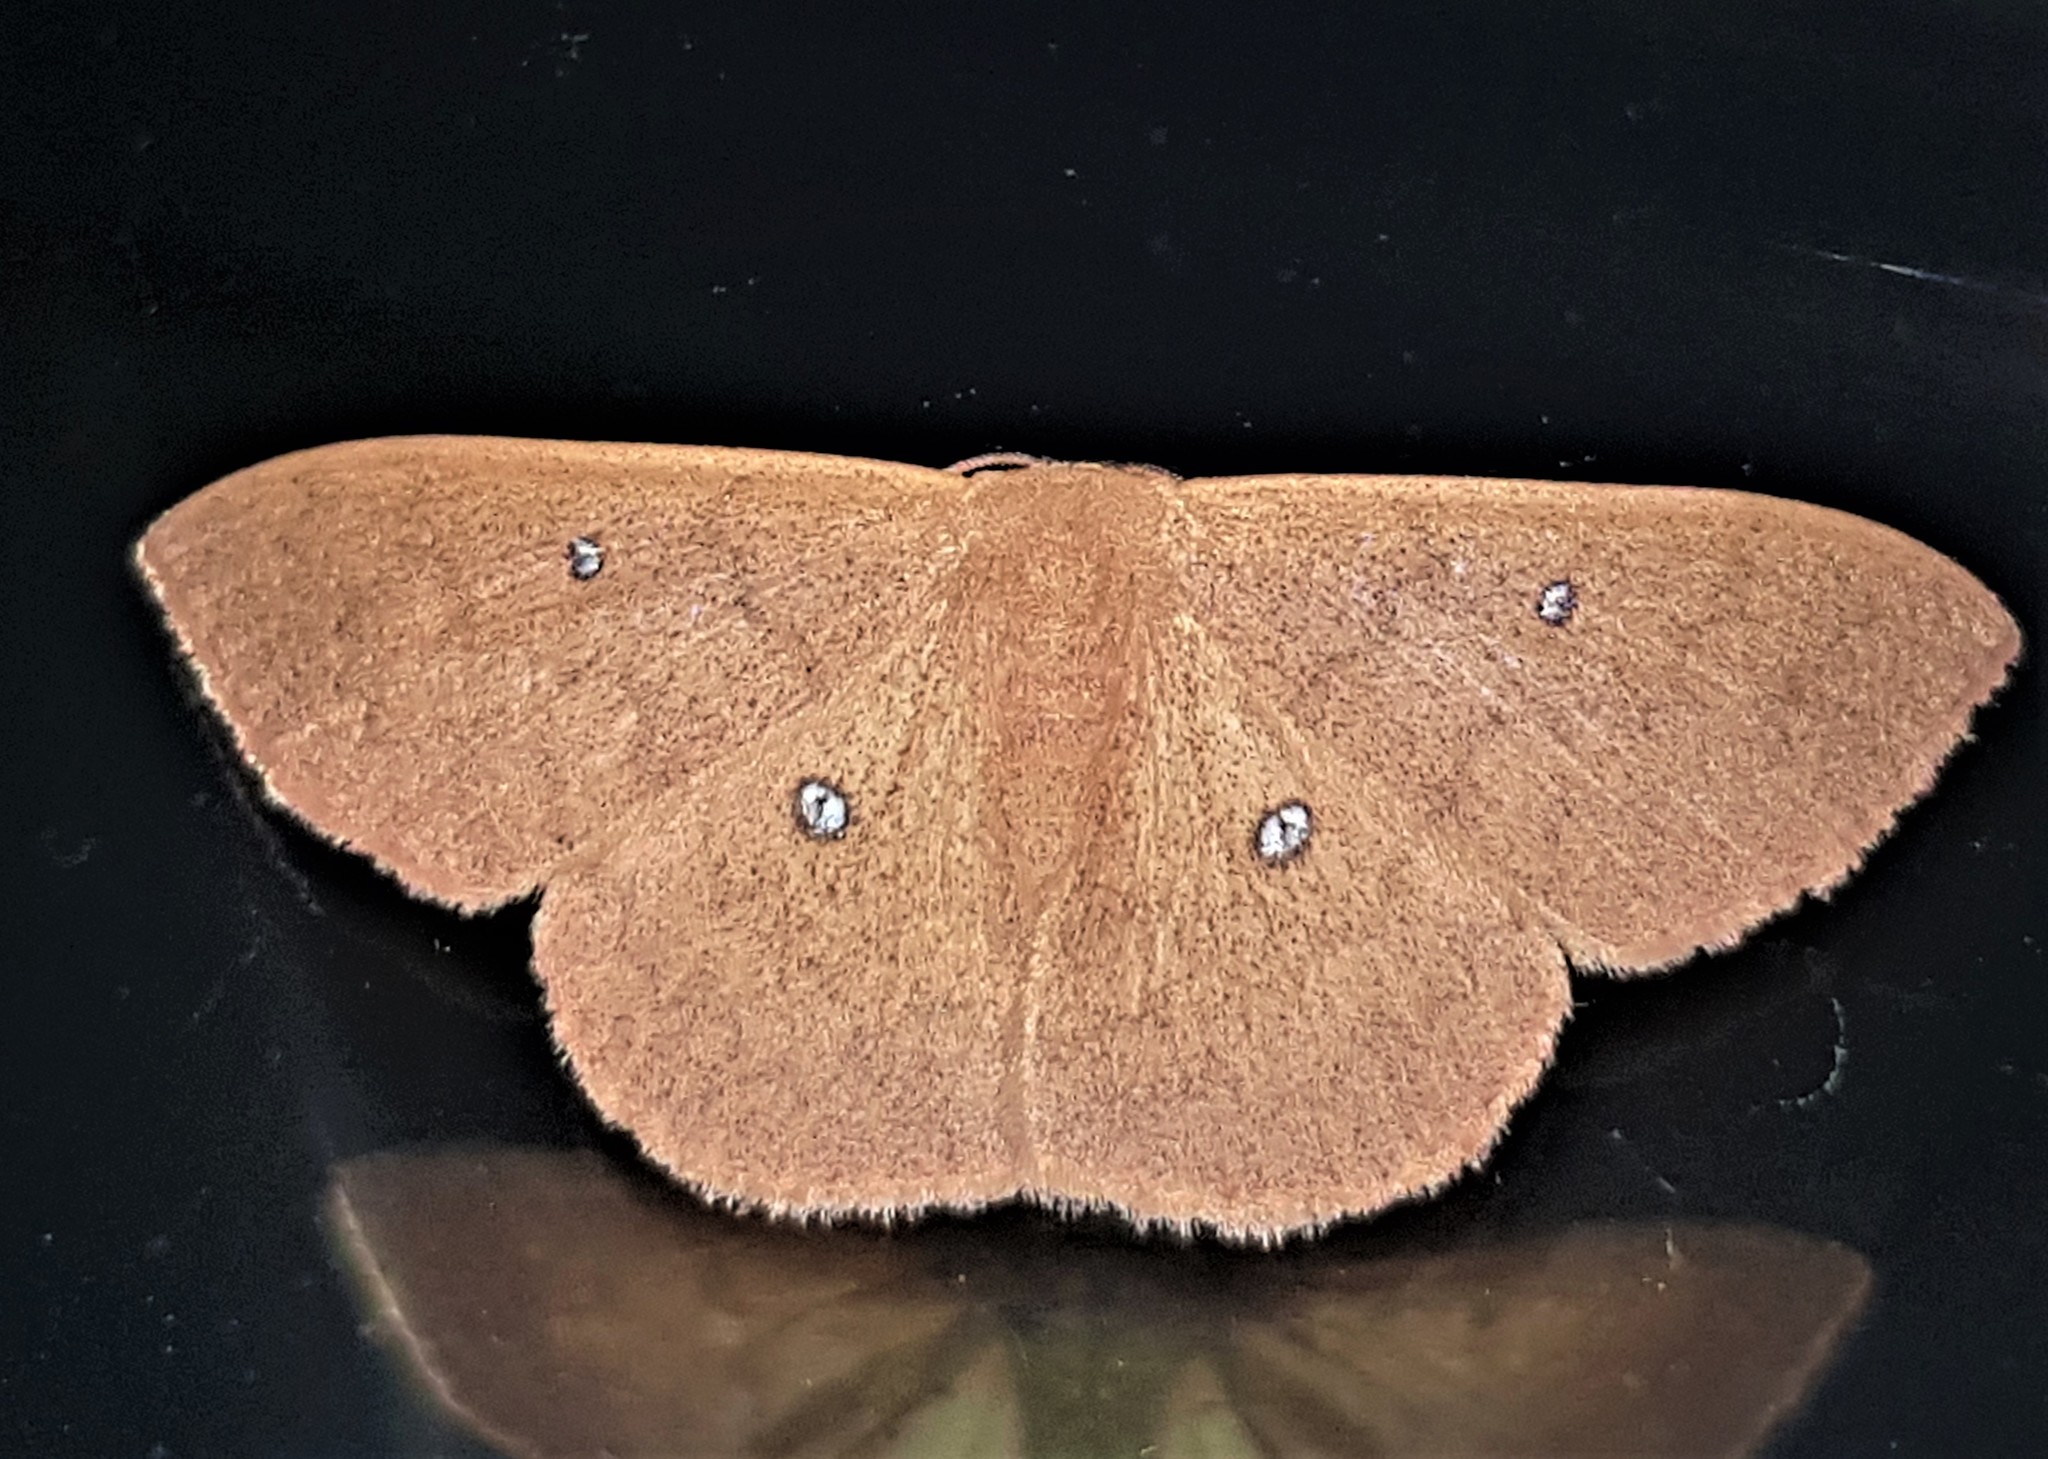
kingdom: Animalia
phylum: Arthropoda
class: Insecta
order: Lepidoptera
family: Geometridae
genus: Semaeopus
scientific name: Semaeopus illimitata
